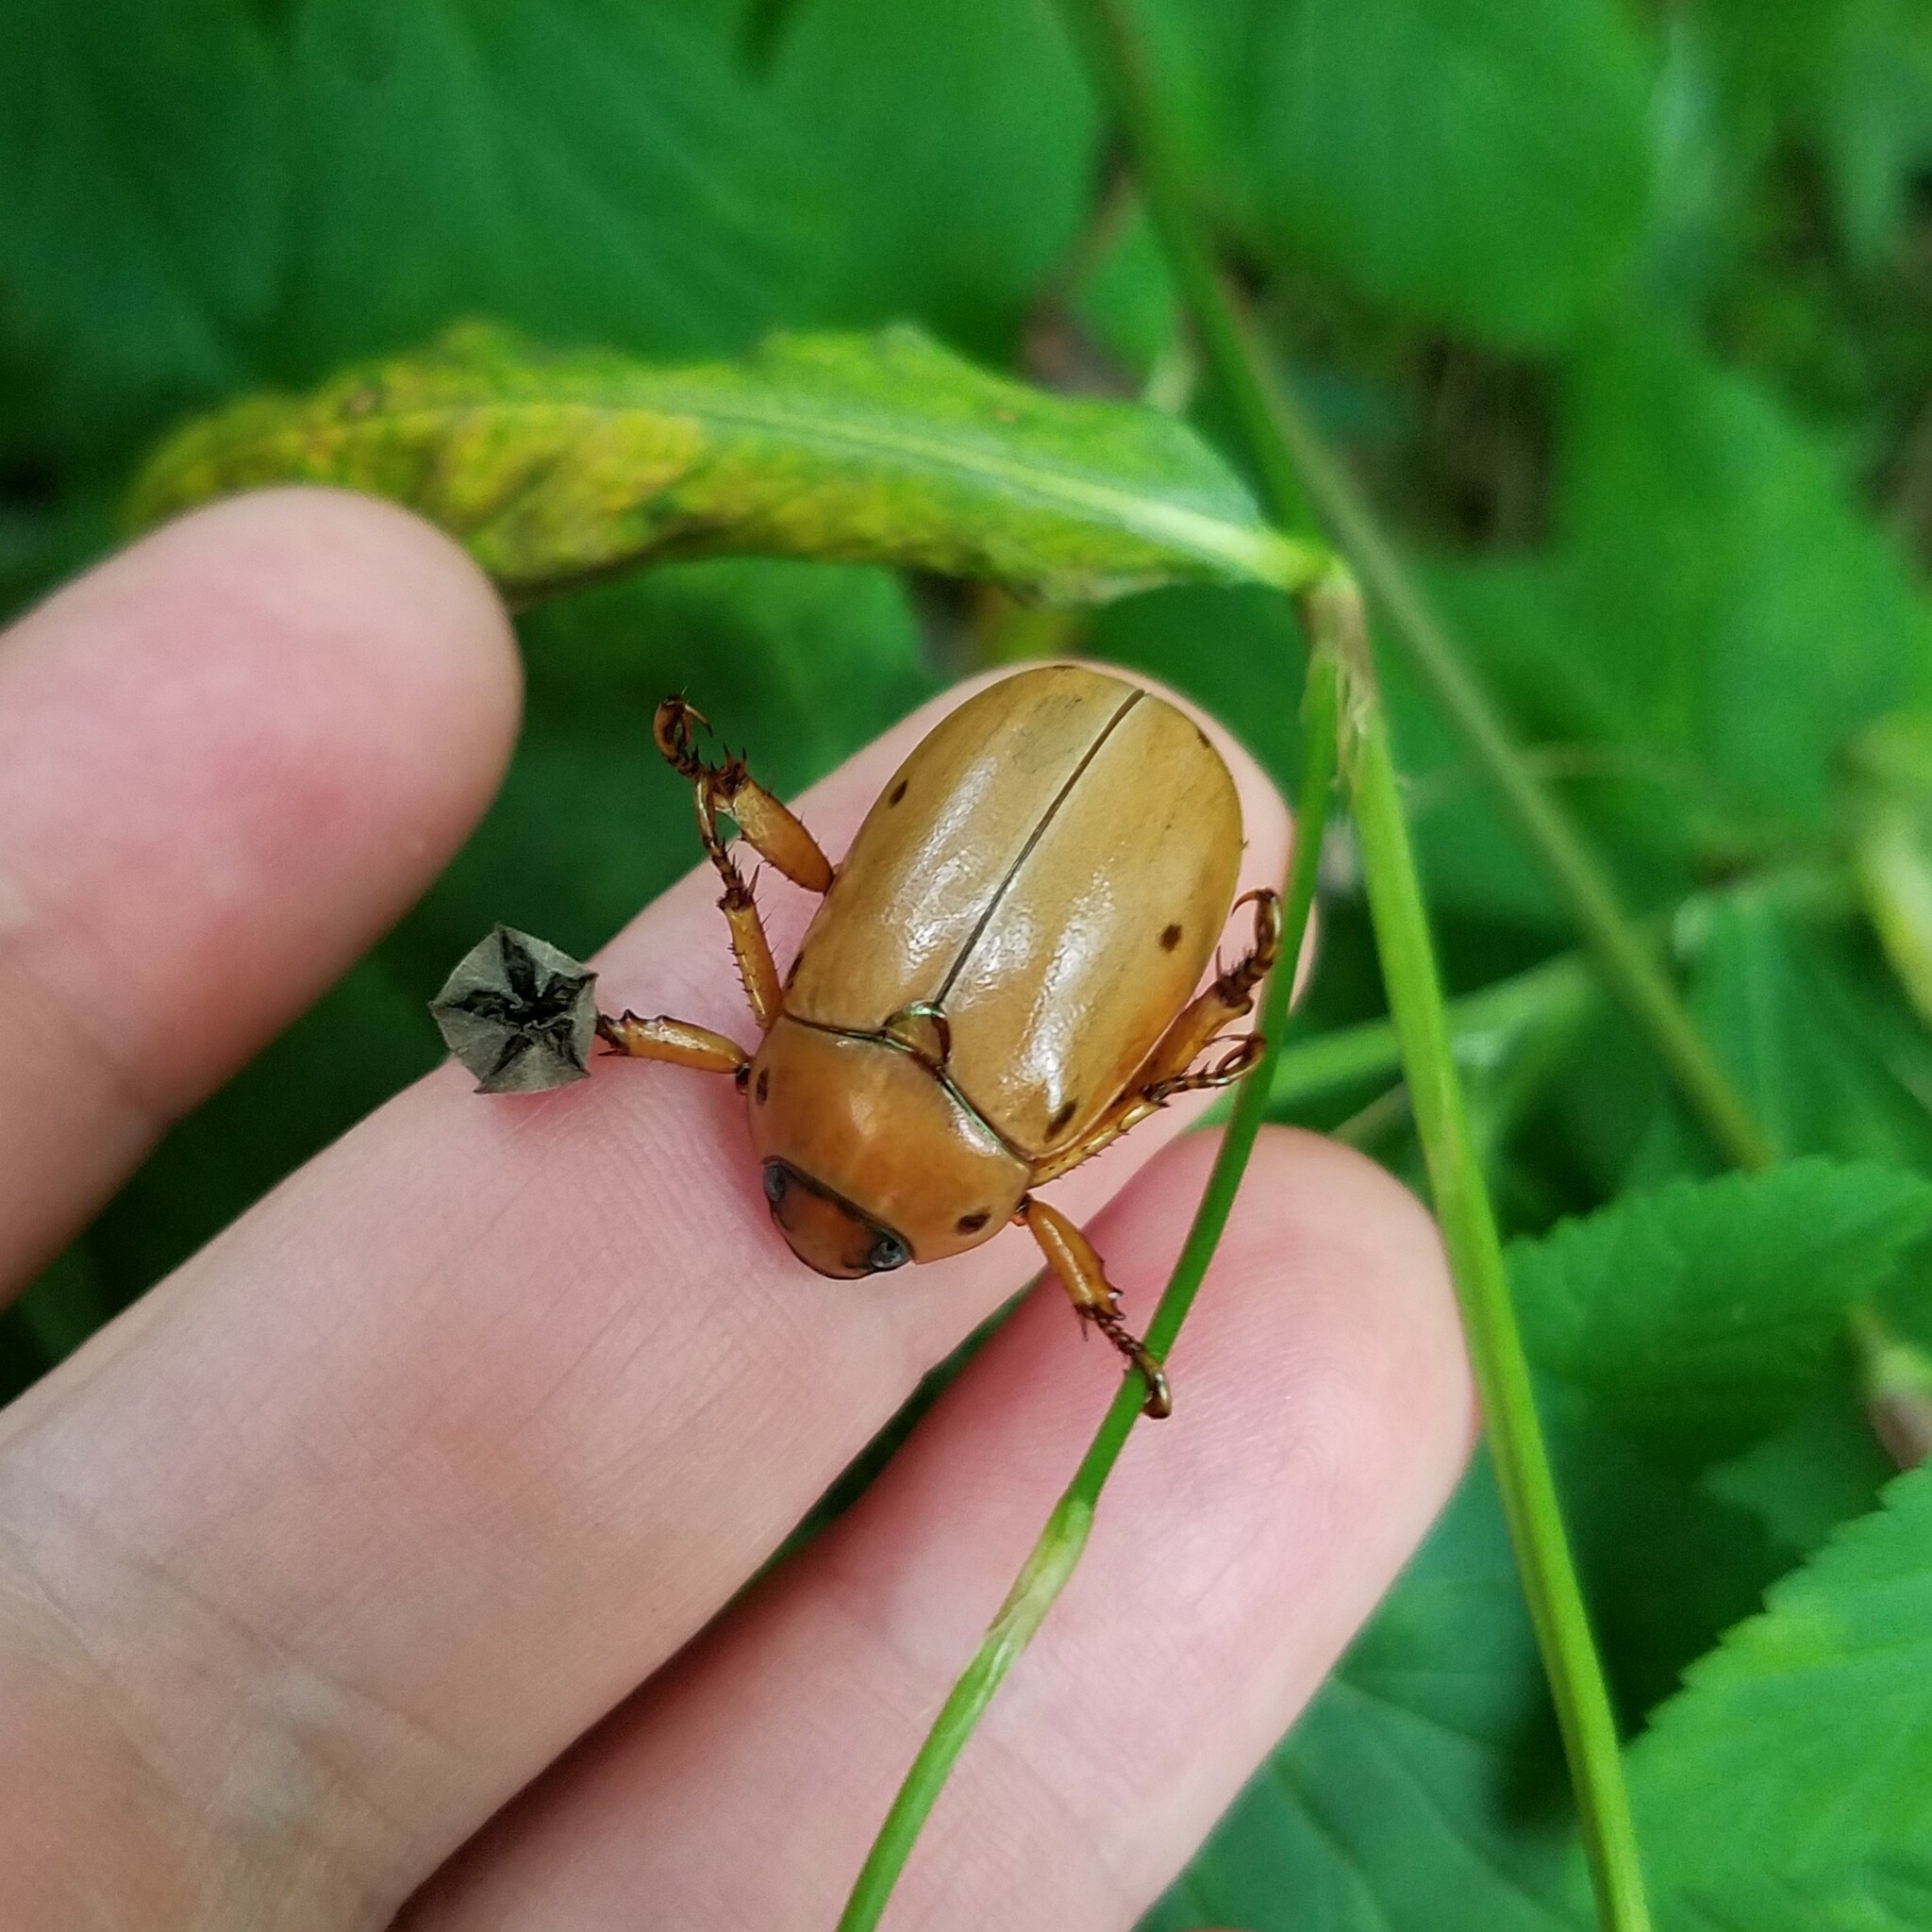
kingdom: Animalia
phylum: Arthropoda
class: Insecta
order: Coleoptera
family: Scarabaeidae
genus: Pelidnota
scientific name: Pelidnota punctata
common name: Grapevine beetle
